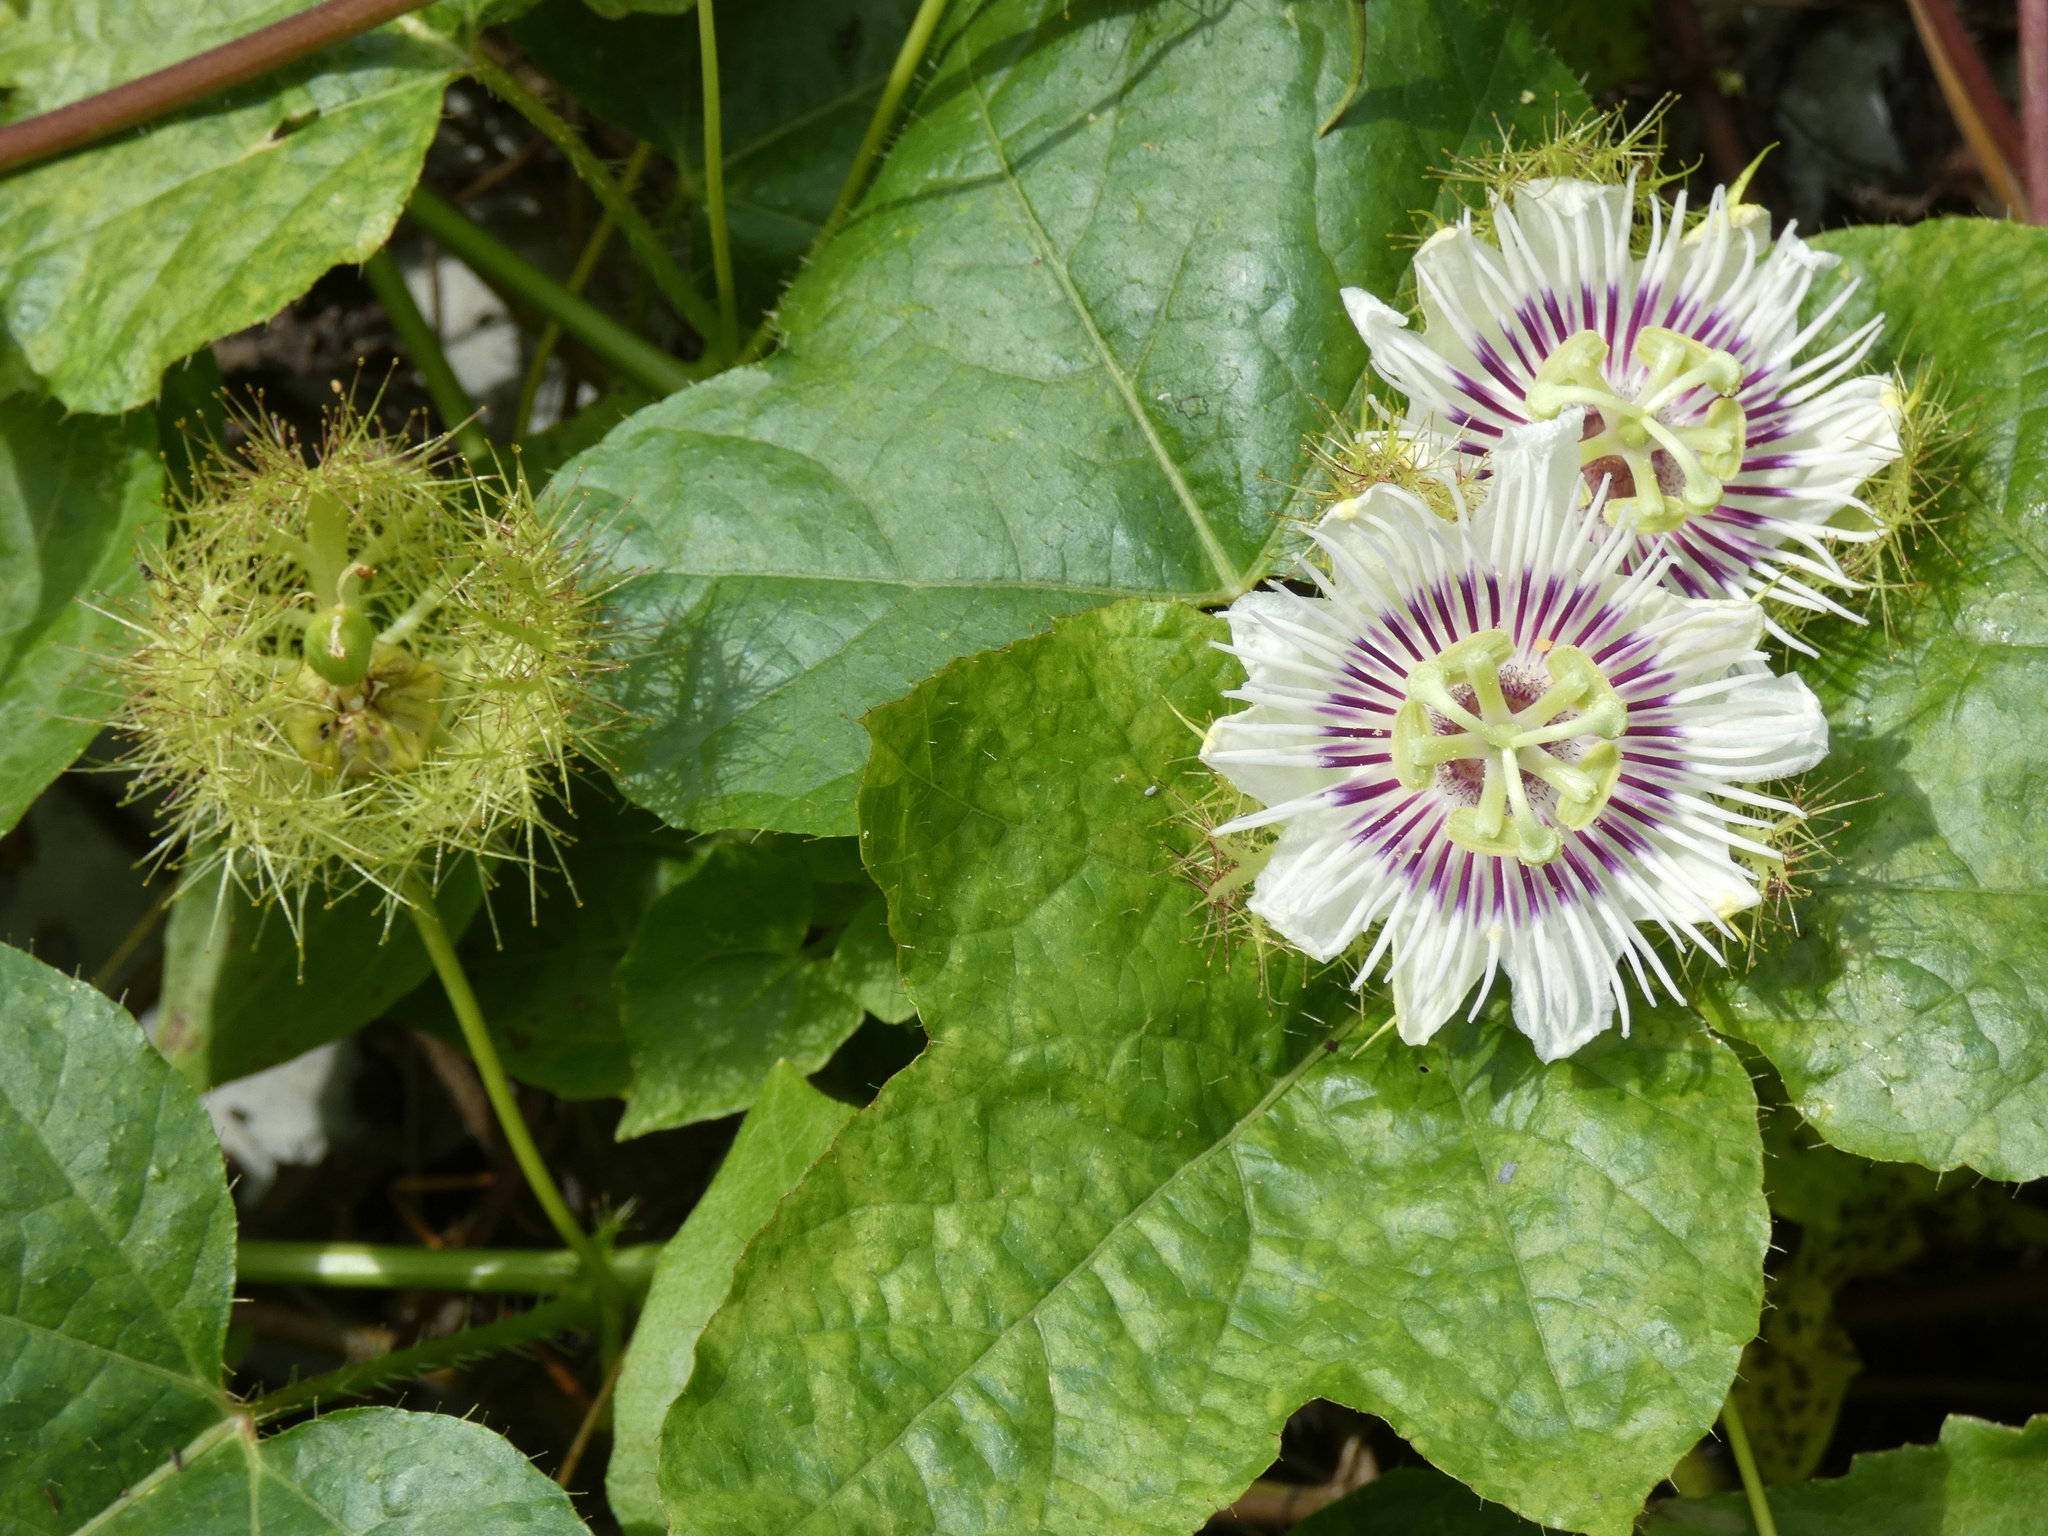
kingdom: Plantae
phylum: Tracheophyta
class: Magnoliopsida
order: Malpighiales
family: Passifloraceae
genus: Passiflora
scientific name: Passiflora vesicaria
